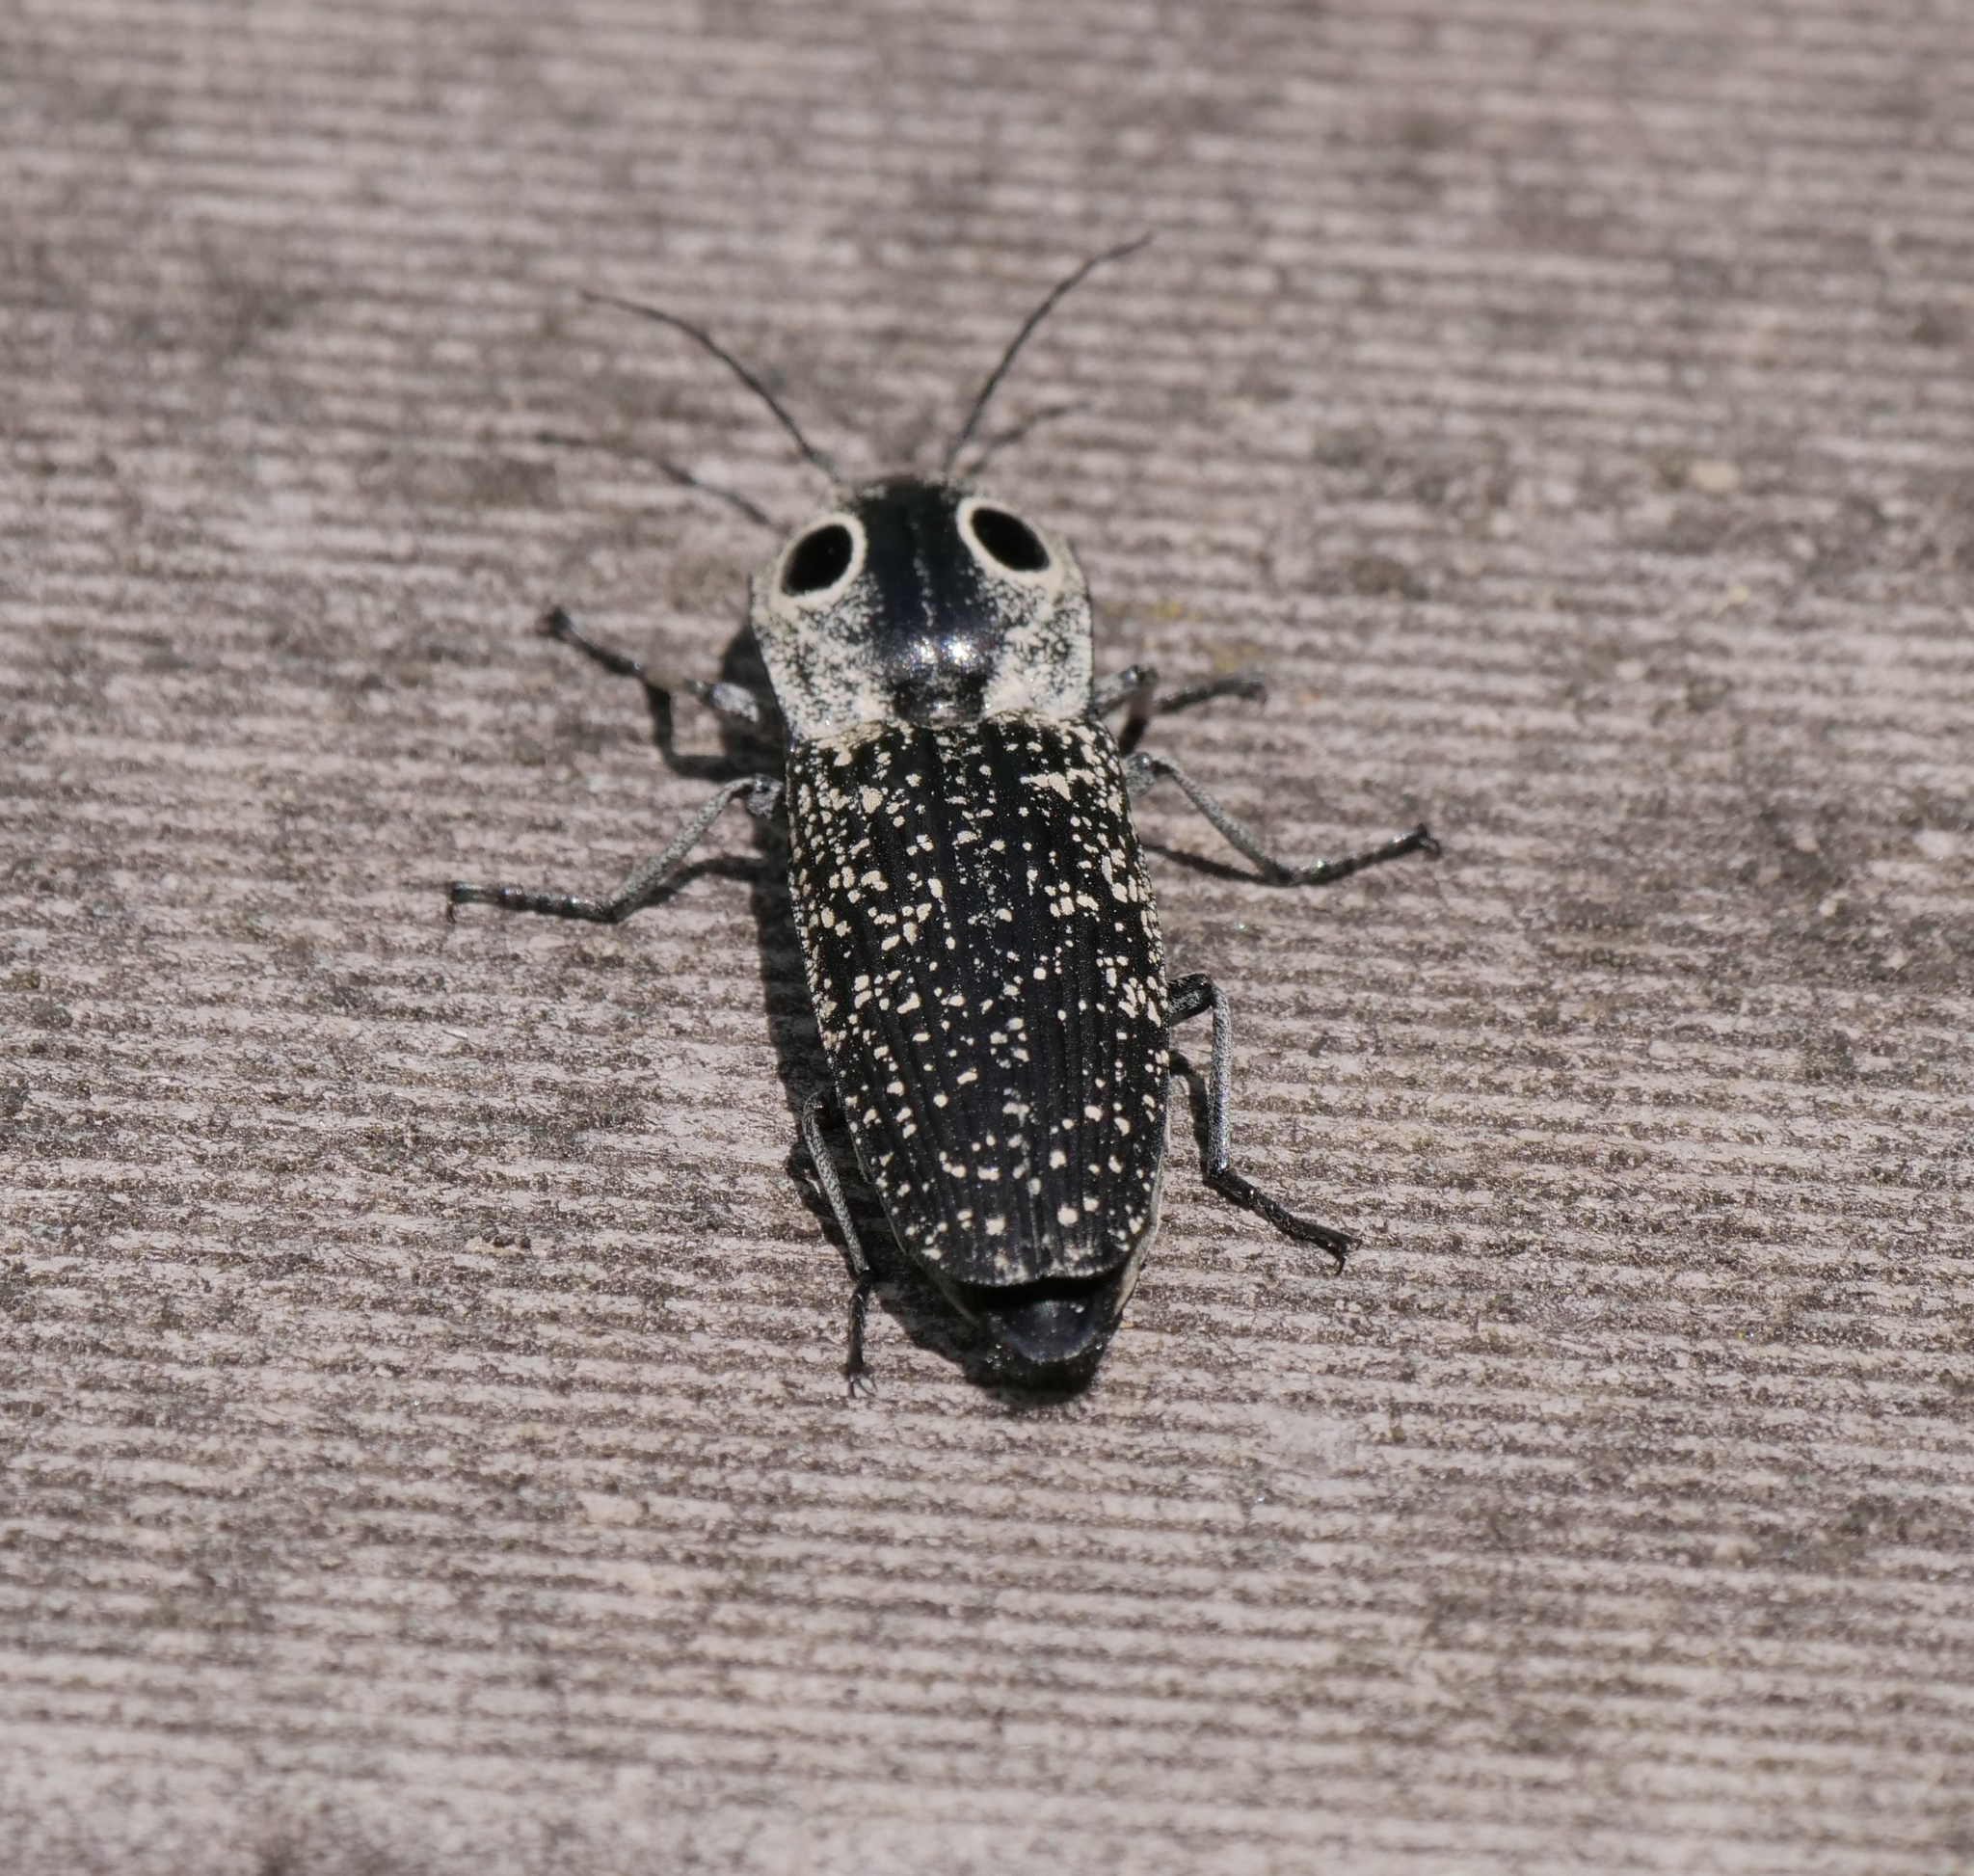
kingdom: Animalia
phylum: Arthropoda
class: Insecta
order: Coleoptera
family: Elateridae
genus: Alaus
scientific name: Alaus oculatus
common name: Eastern eyed click beetle
